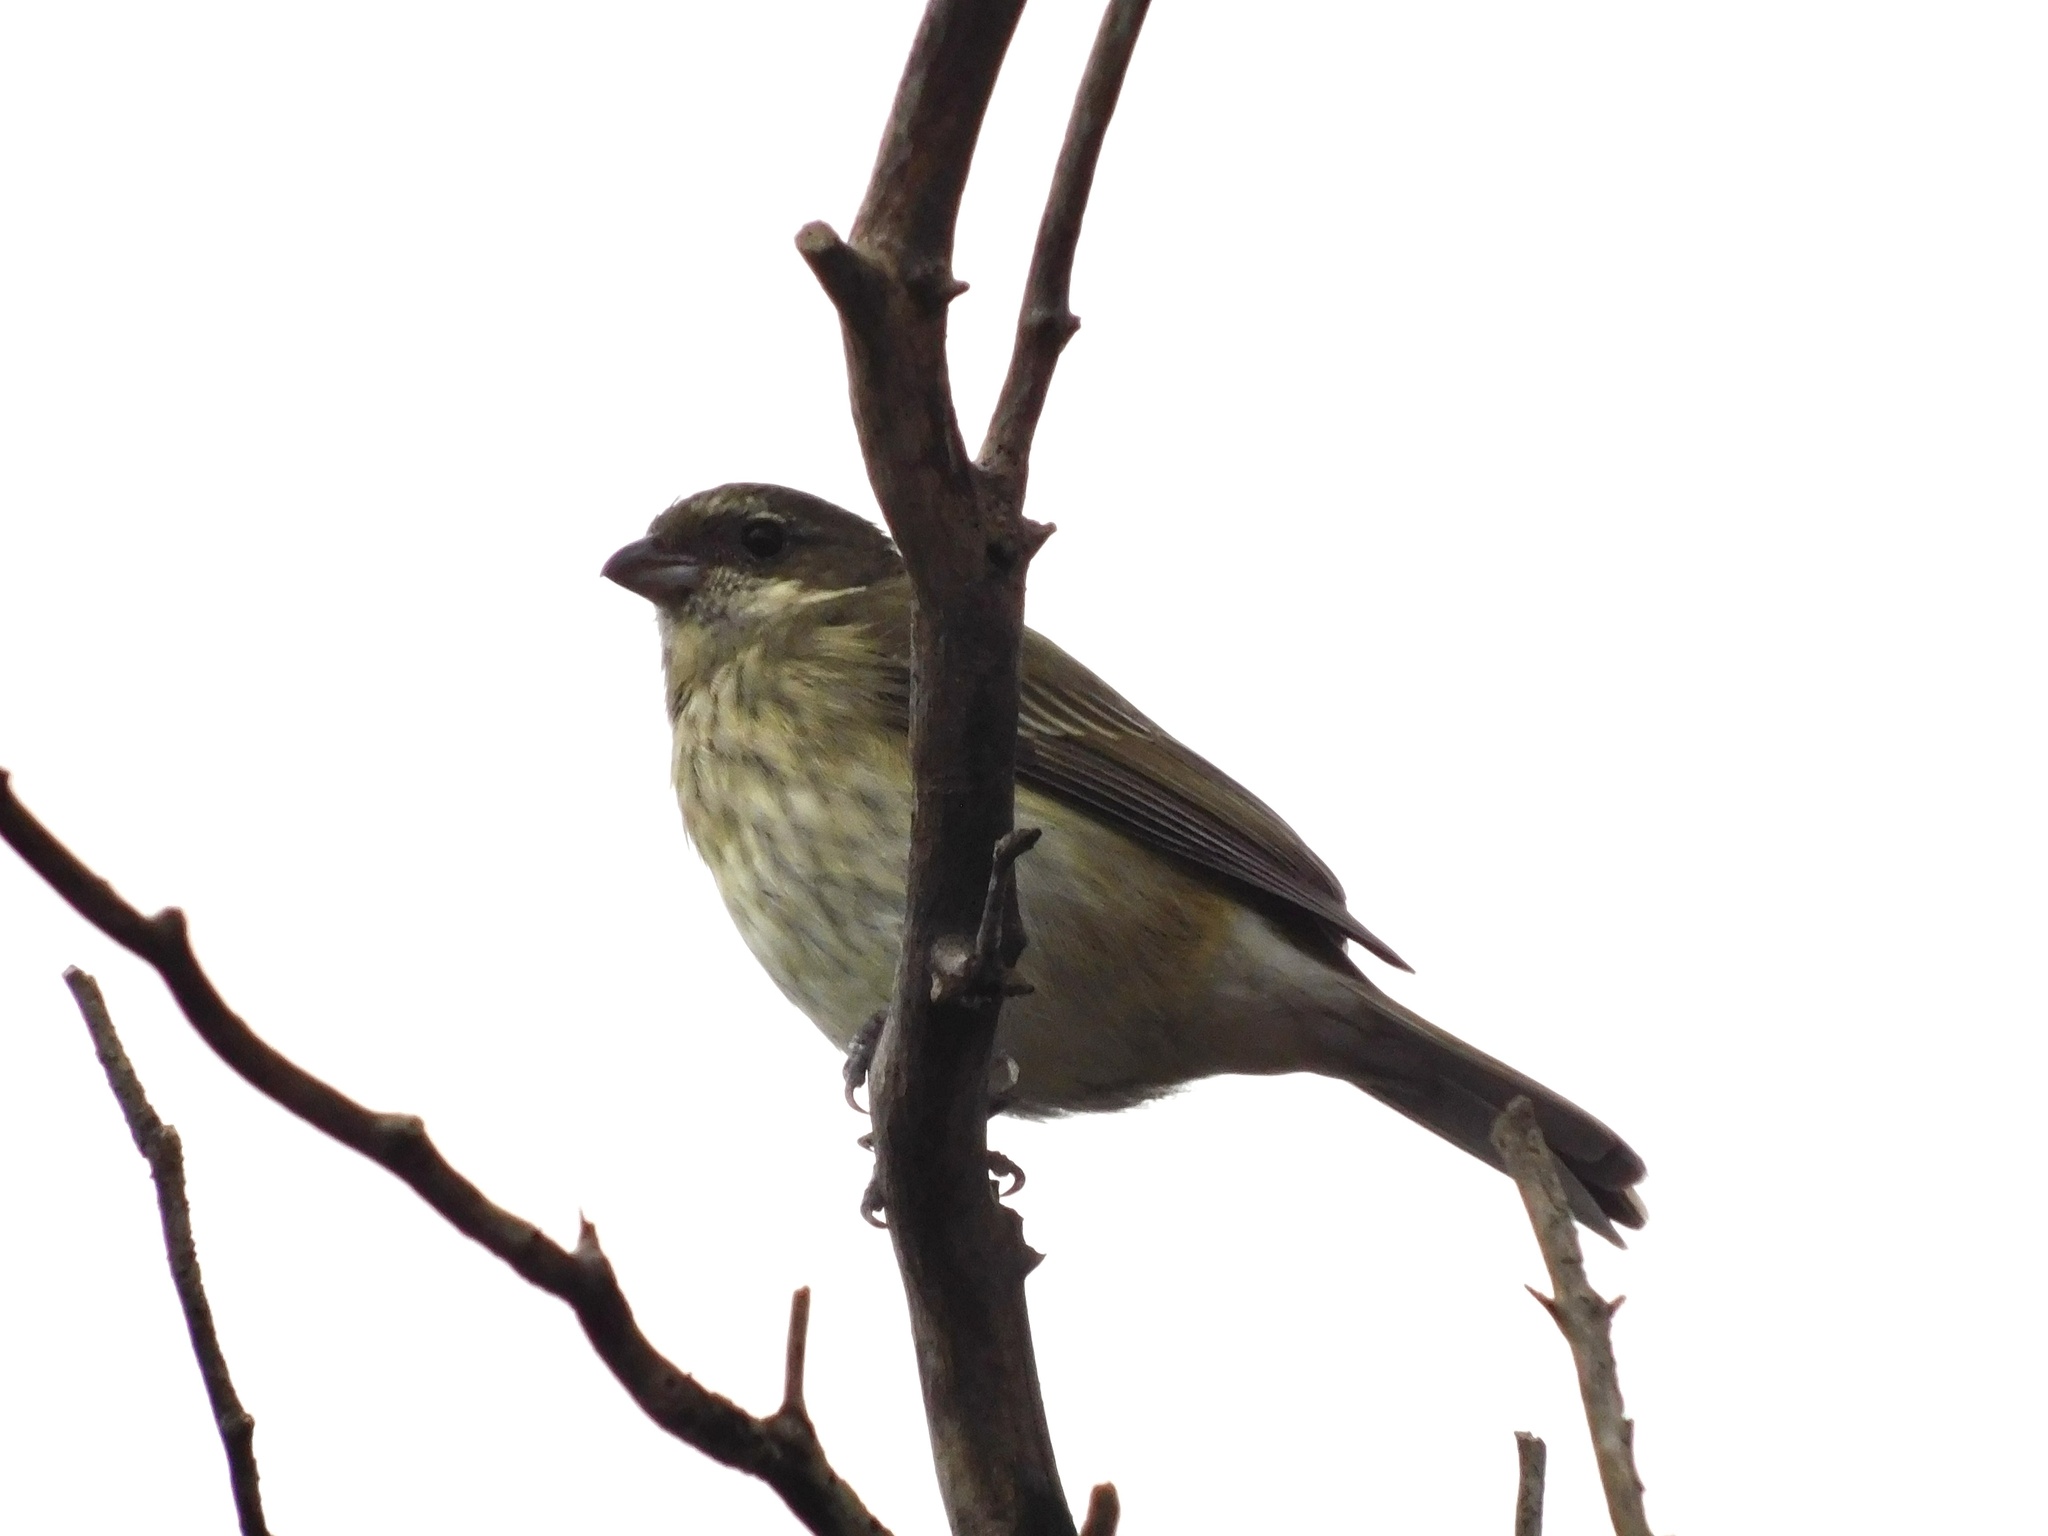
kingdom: Animalia
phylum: Chordata
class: Aves
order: Passeriformes
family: Spindalidae
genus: Spindalis
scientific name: Spindalis portoricensis
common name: Puerto rican spindalis
